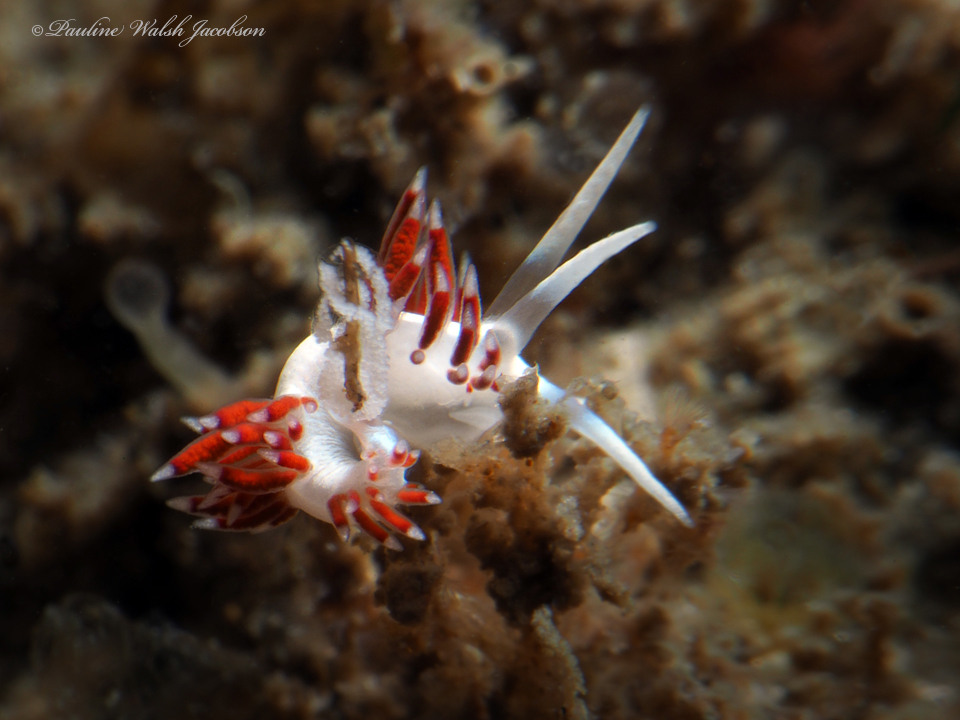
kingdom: Animalia
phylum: Mollusca
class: Gastropoda
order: Nudibranchia
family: Flabellinidae
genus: Flabellina
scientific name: Flabellina dushia
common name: Dushia flabellina
